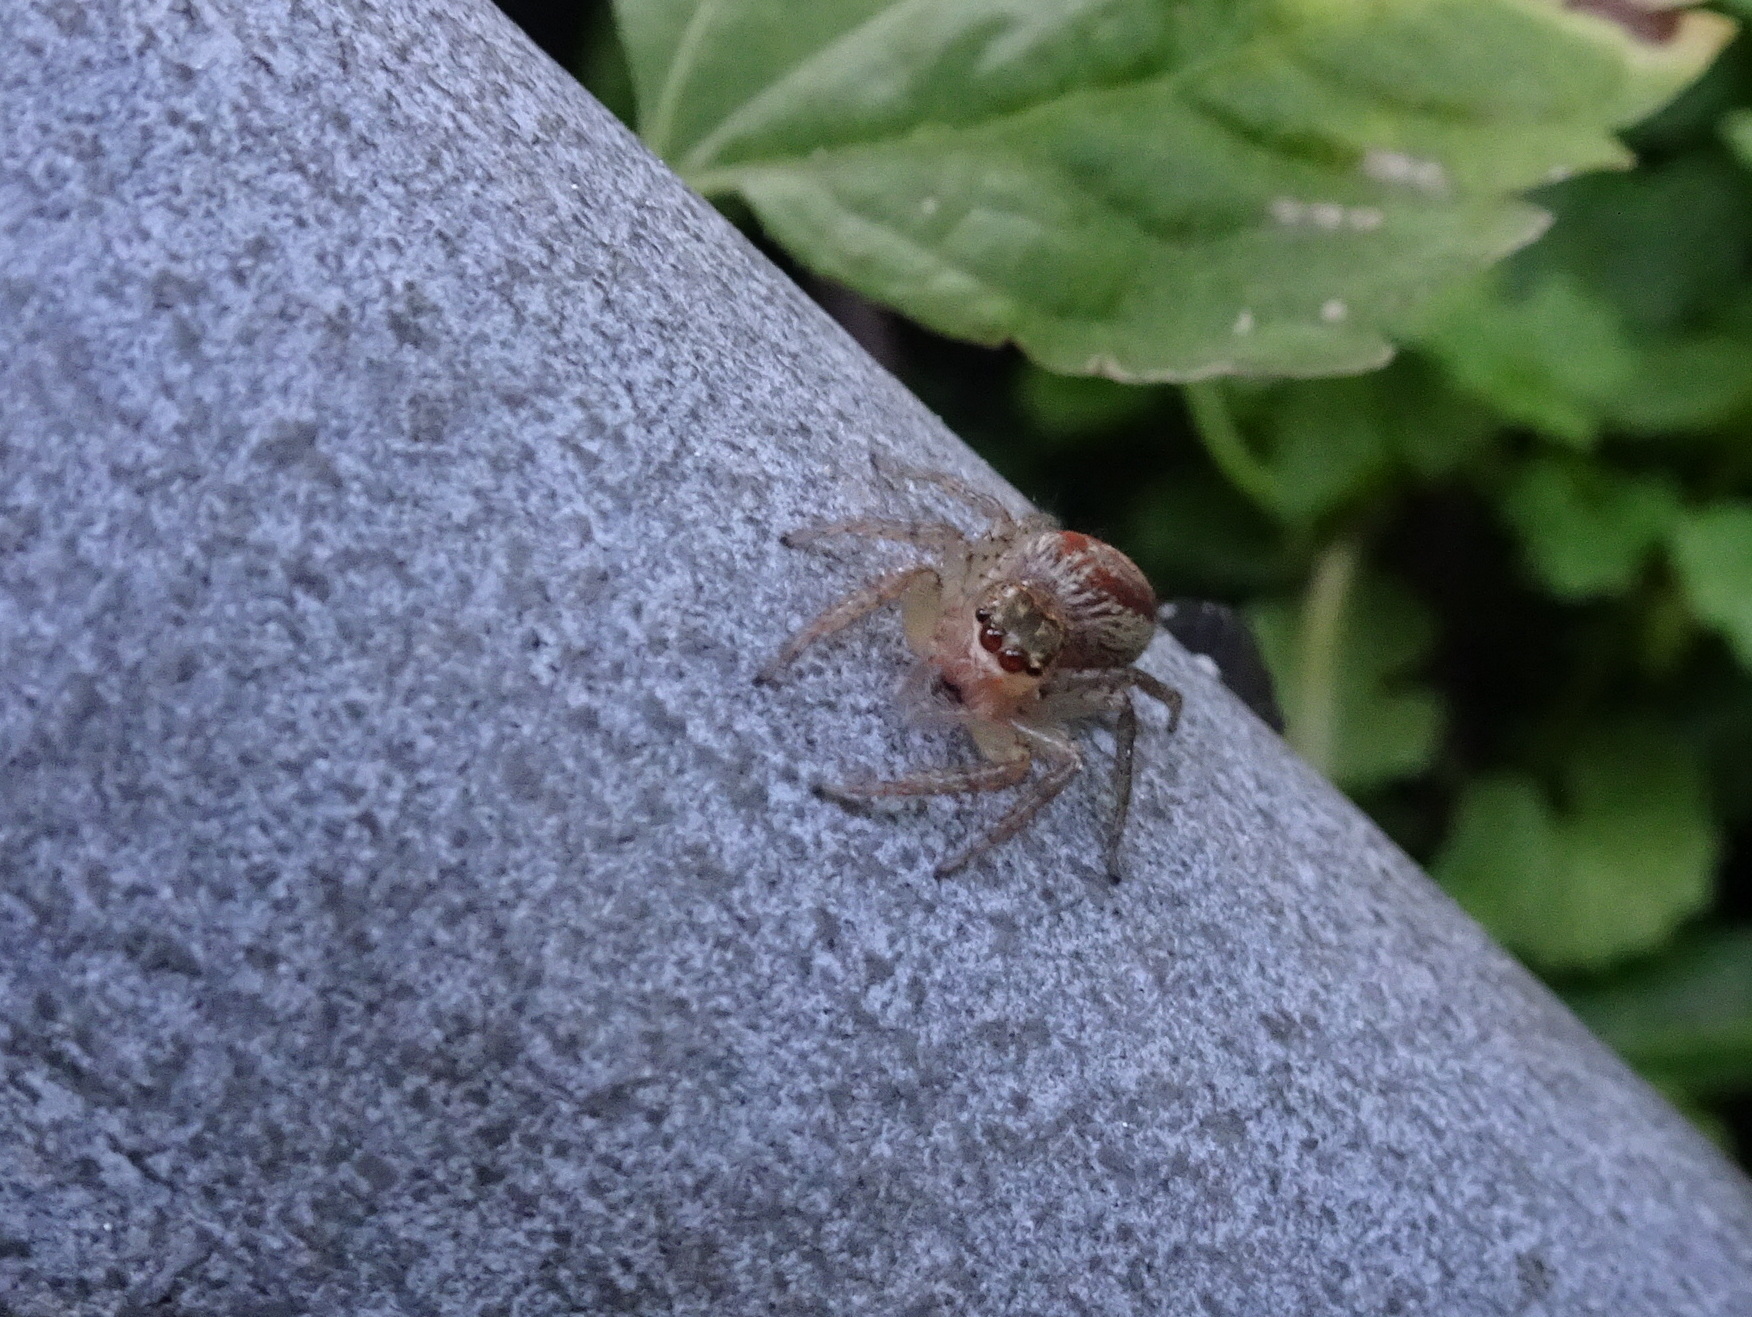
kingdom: Animalia
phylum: Arthropoda
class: Arachnida
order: Araneae
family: Salticidae
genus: Maevia
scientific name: Maevia inclemens
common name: Dimorphic jumper
